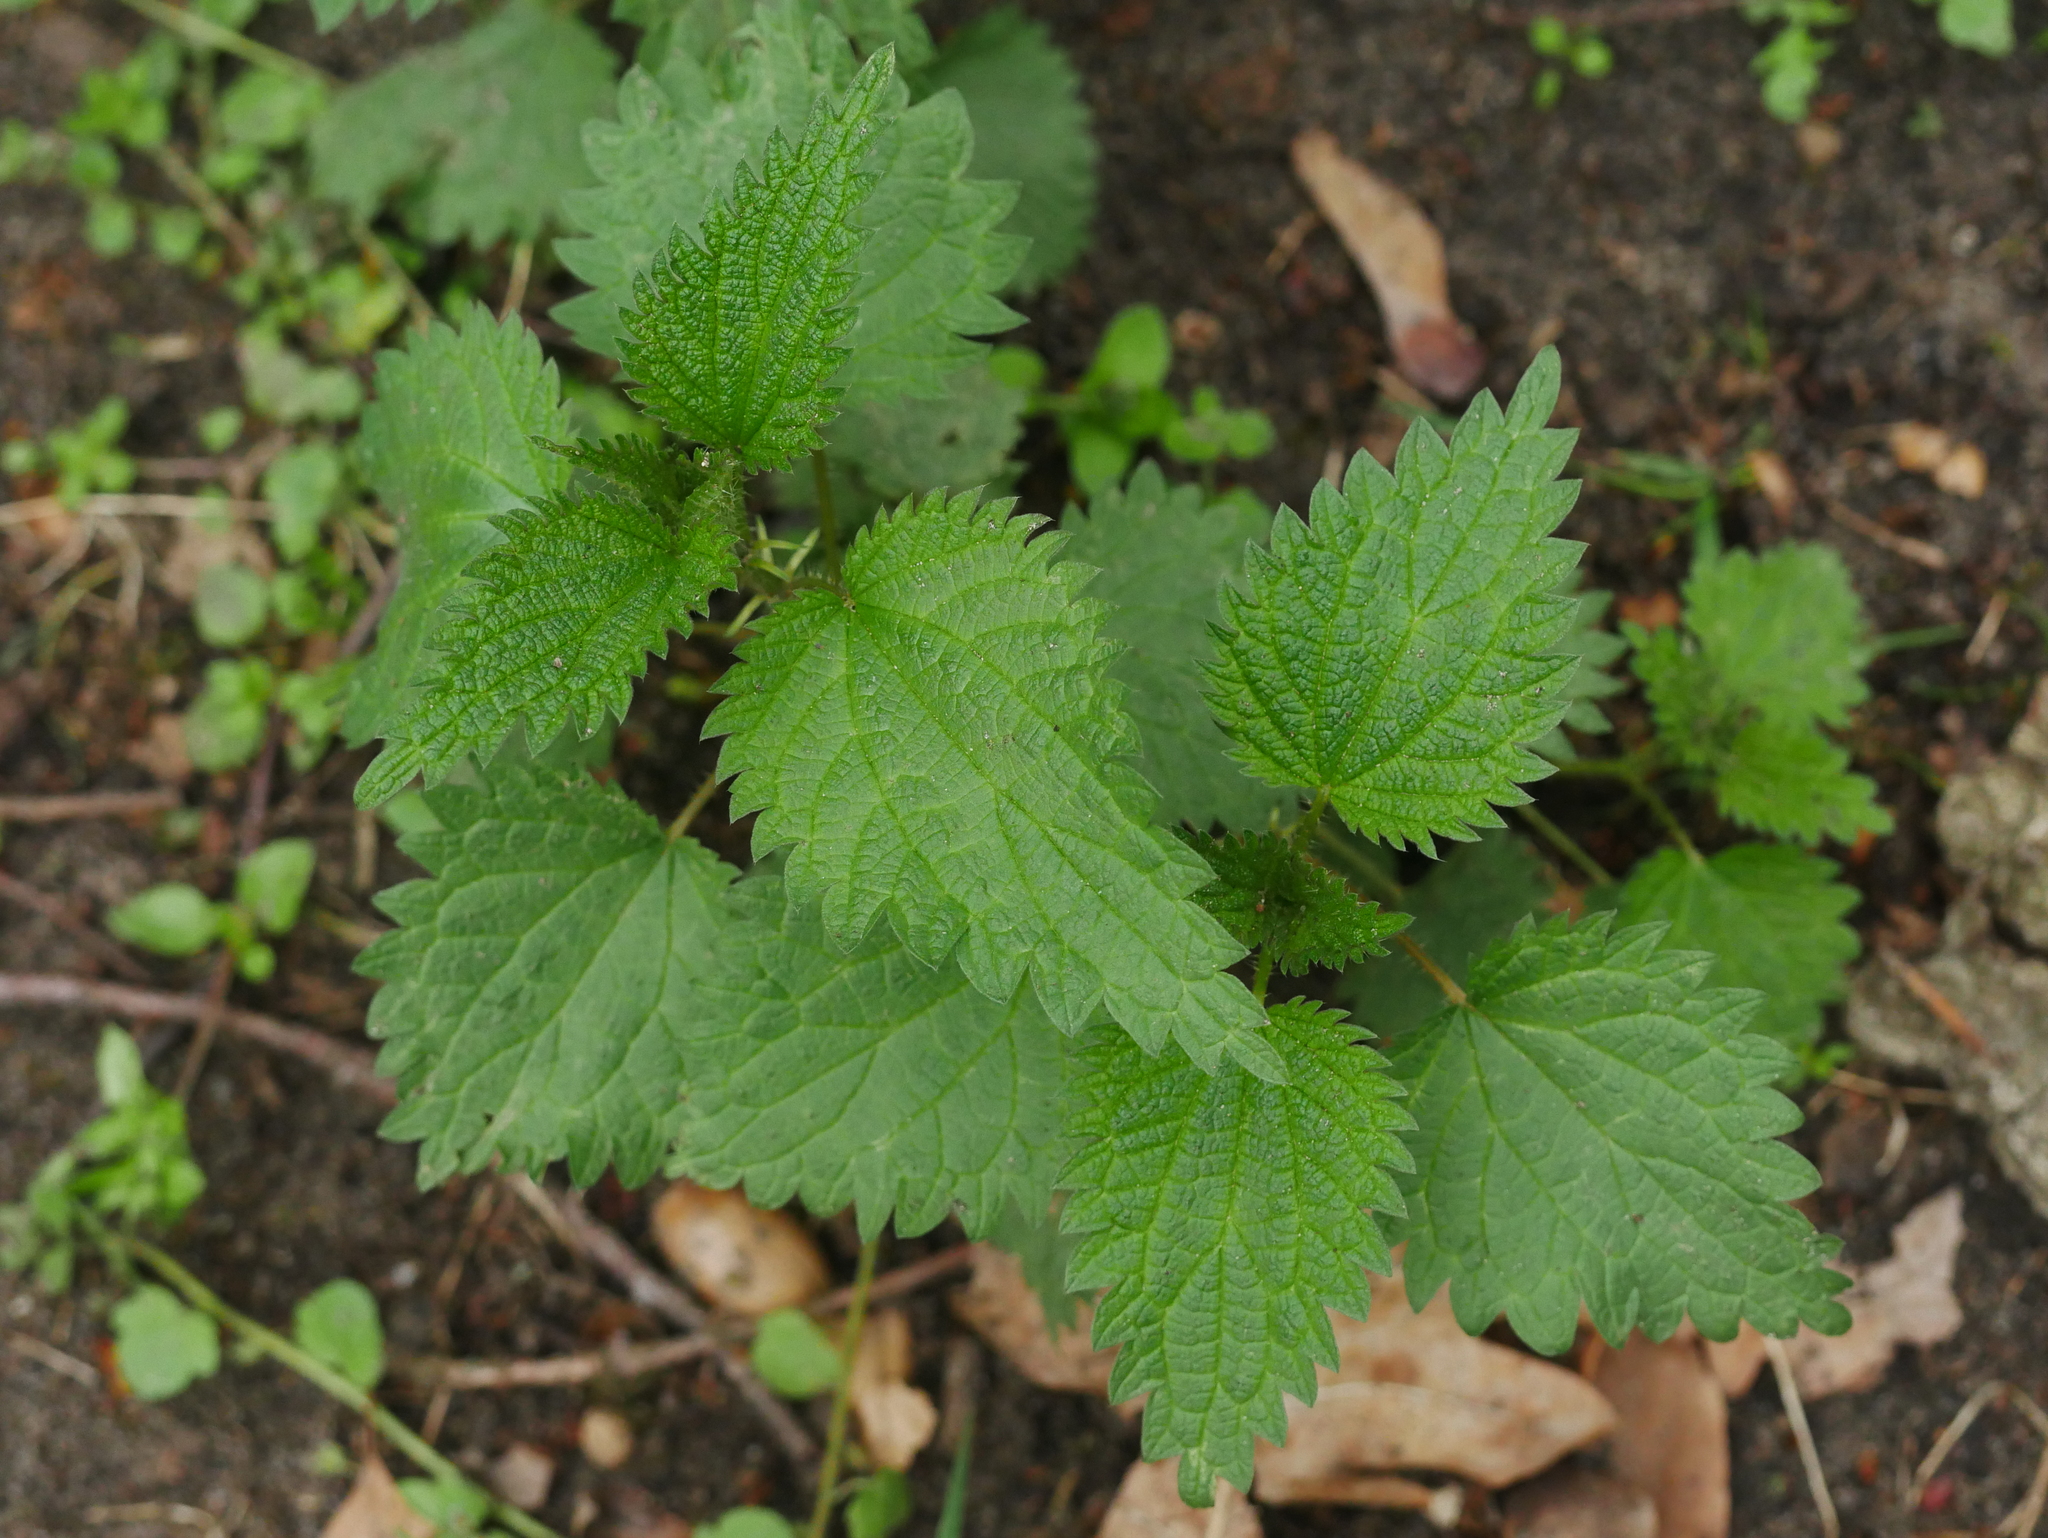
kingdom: Plantae
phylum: Tracheophyta
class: Magnoliopsida
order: Rosales
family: Urticaceae
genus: Urtica
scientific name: Urtica dioica
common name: Common nettle
